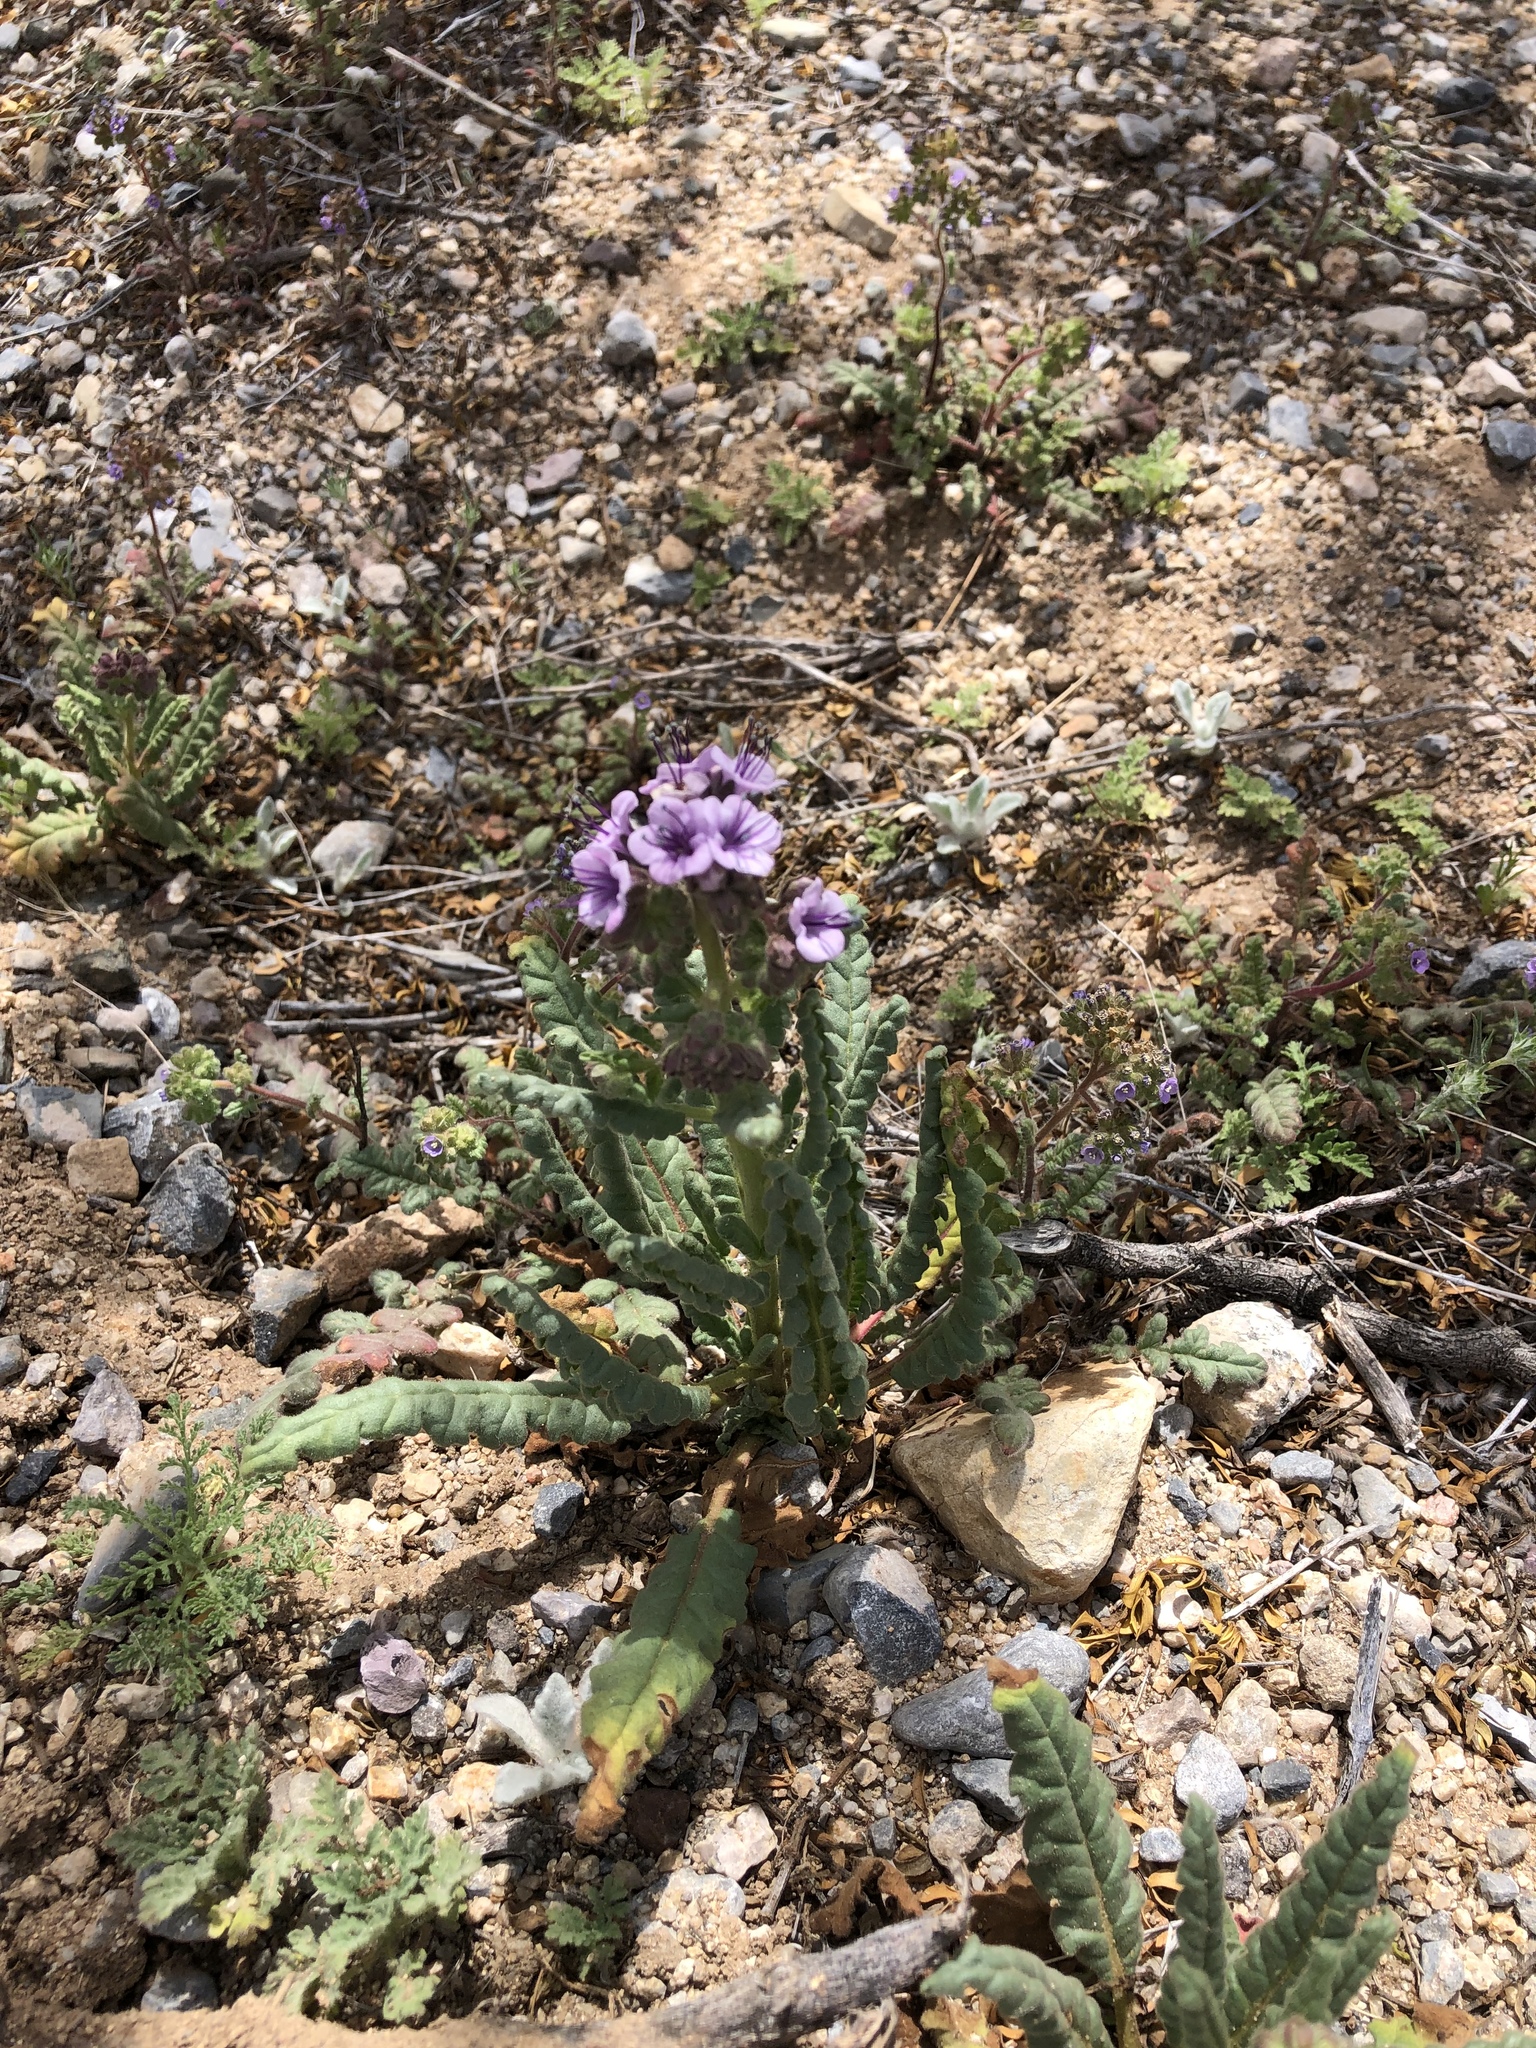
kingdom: Plantae
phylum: Tracheophyta
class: Magnoliopsida
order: Boraginales
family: Hydrophyllaceae
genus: Phacelia
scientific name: Phacelia integrifolia
